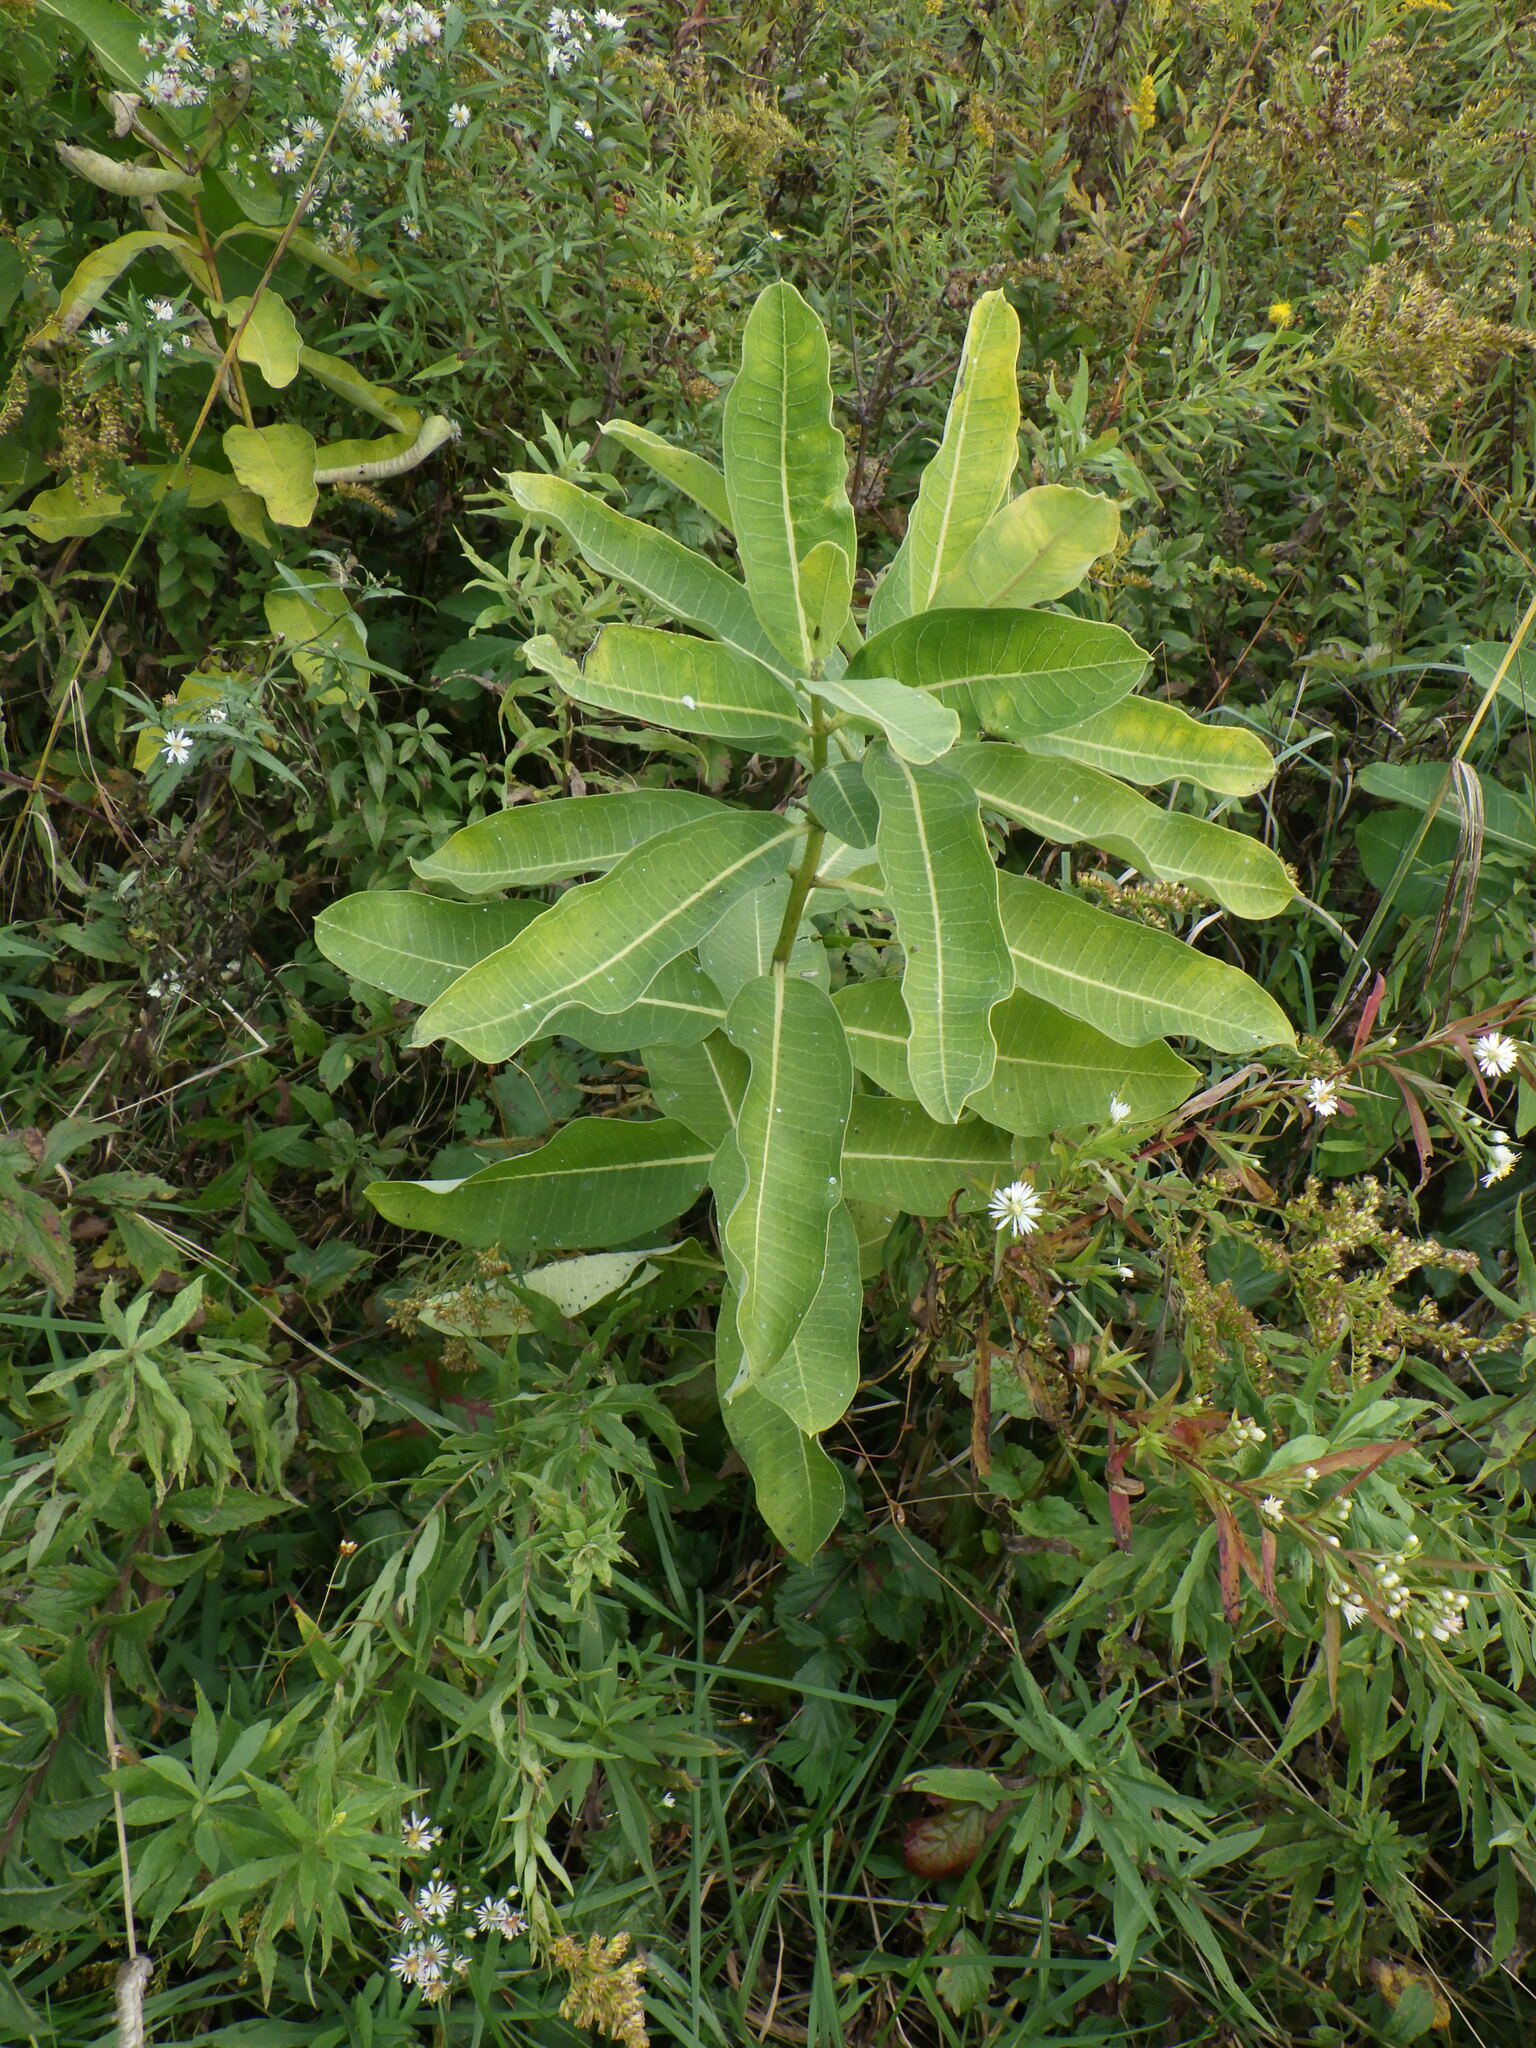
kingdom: Plantae
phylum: Tracheophyta
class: Magnoliopsida
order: Gentianales
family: Apocynaceae
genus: Asclepias
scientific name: Asclepias syriaca
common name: Common milkweed
